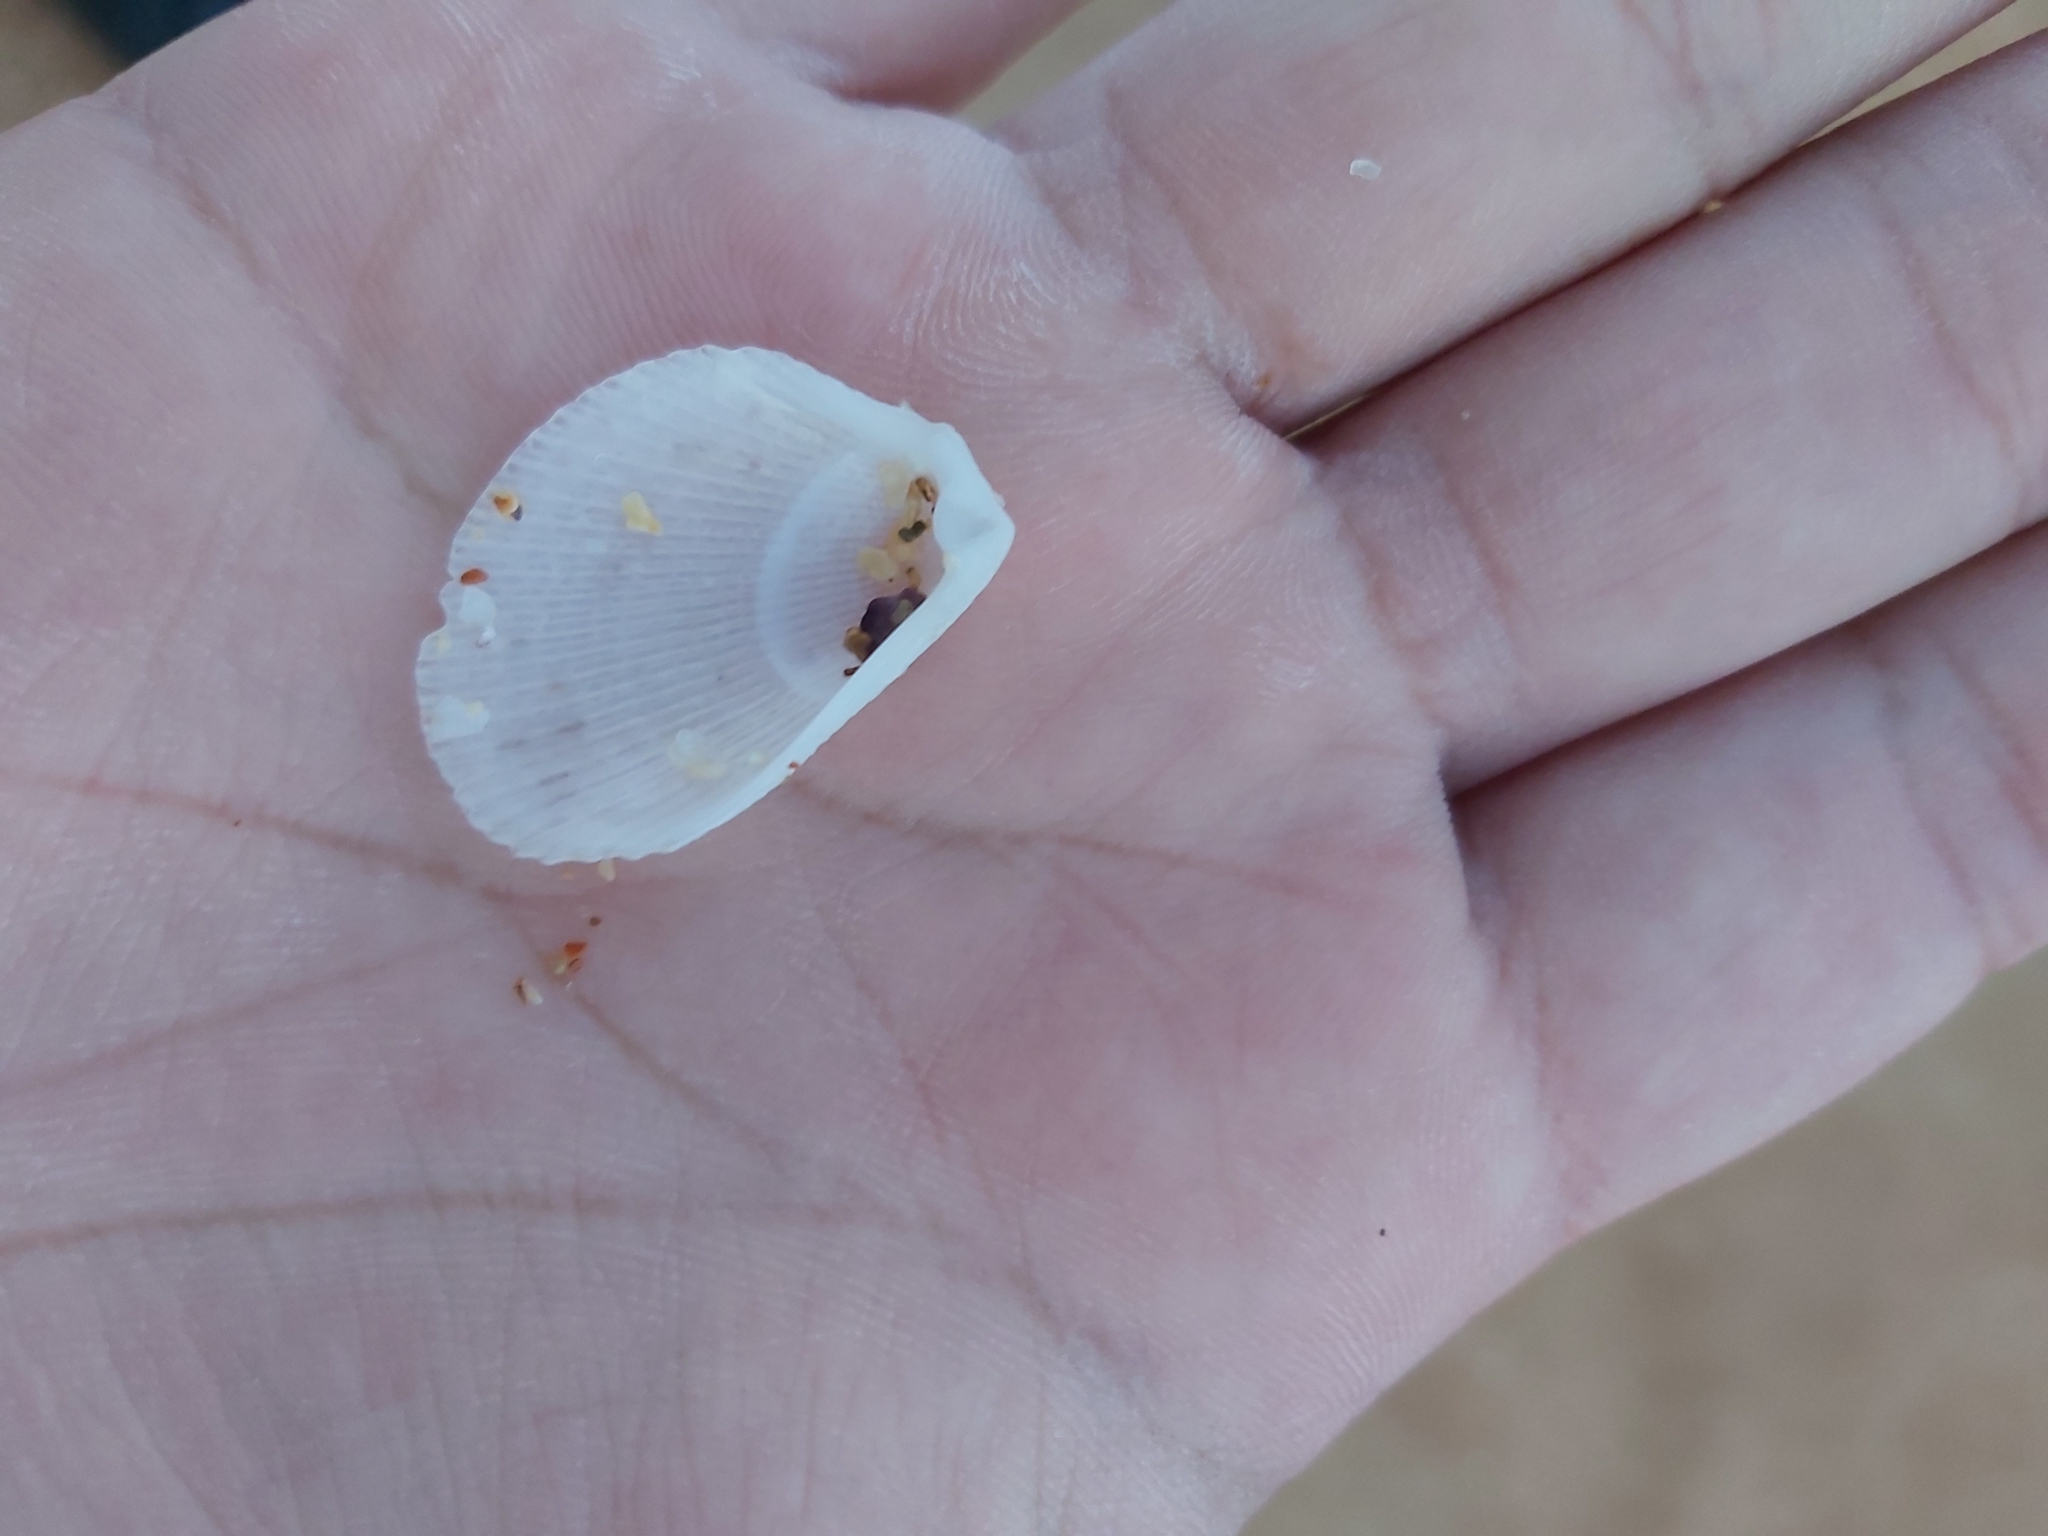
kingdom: Animalia
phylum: Mollusca
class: Bivalvia
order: Limida
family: Limidae
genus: Lima
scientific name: Lima nimbifer
